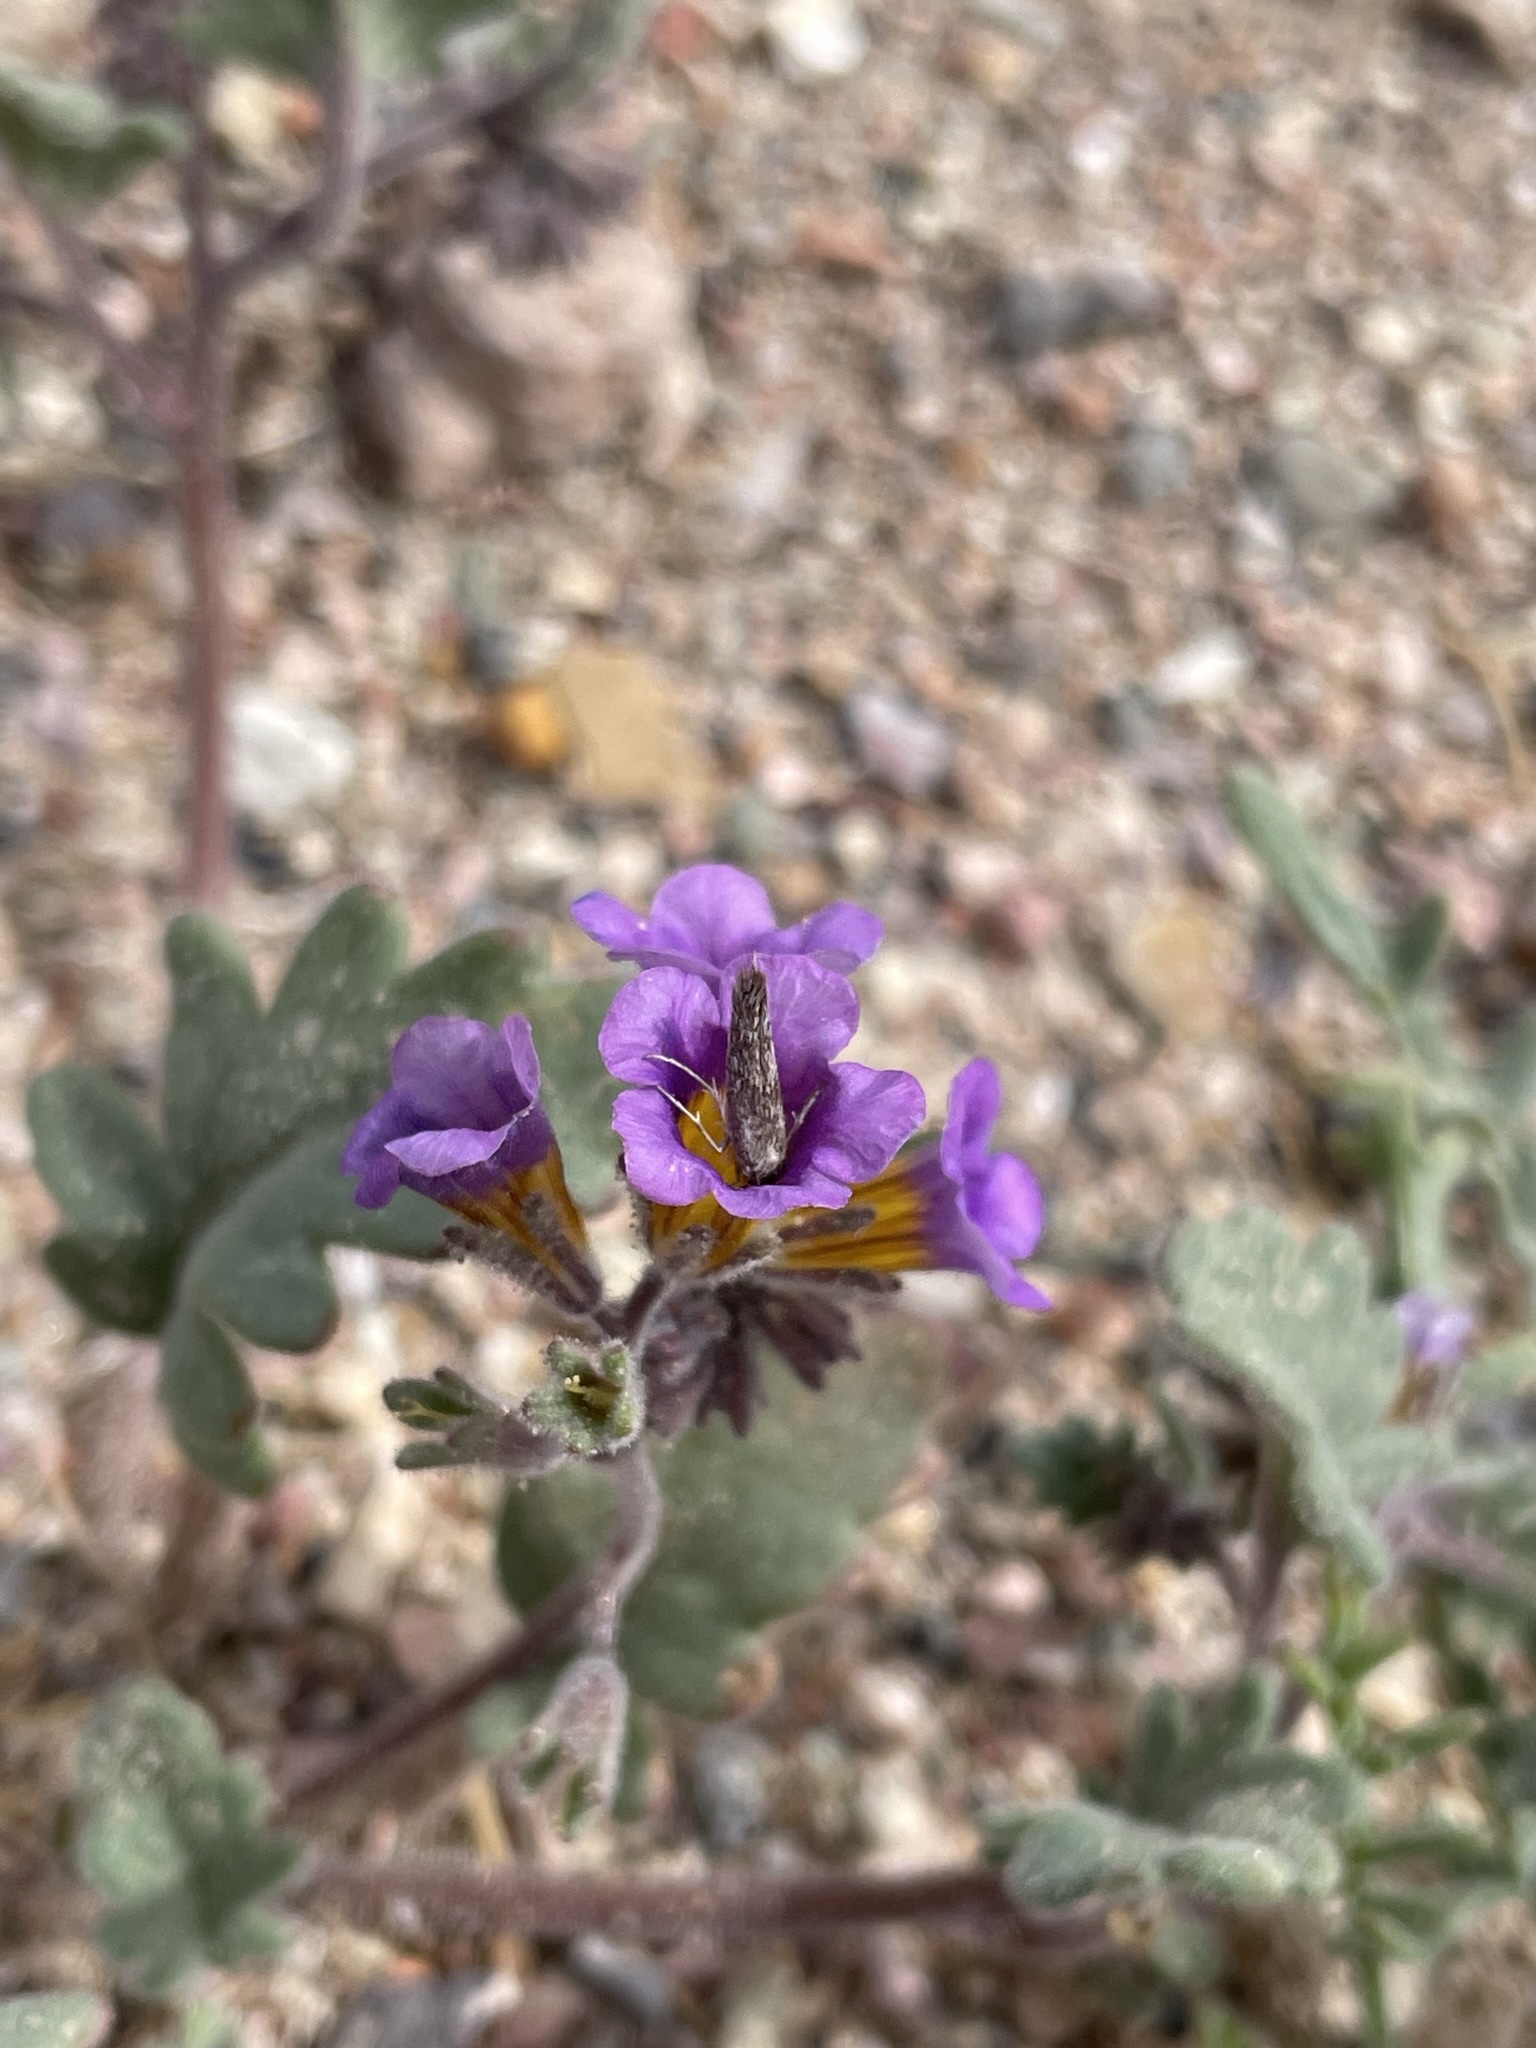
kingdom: Plantae
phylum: Tracheophyta
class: Magnoliopsida
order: Boraginales
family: Hydrophyllaceae
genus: Phacelia
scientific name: Phacelia gymnoclada
